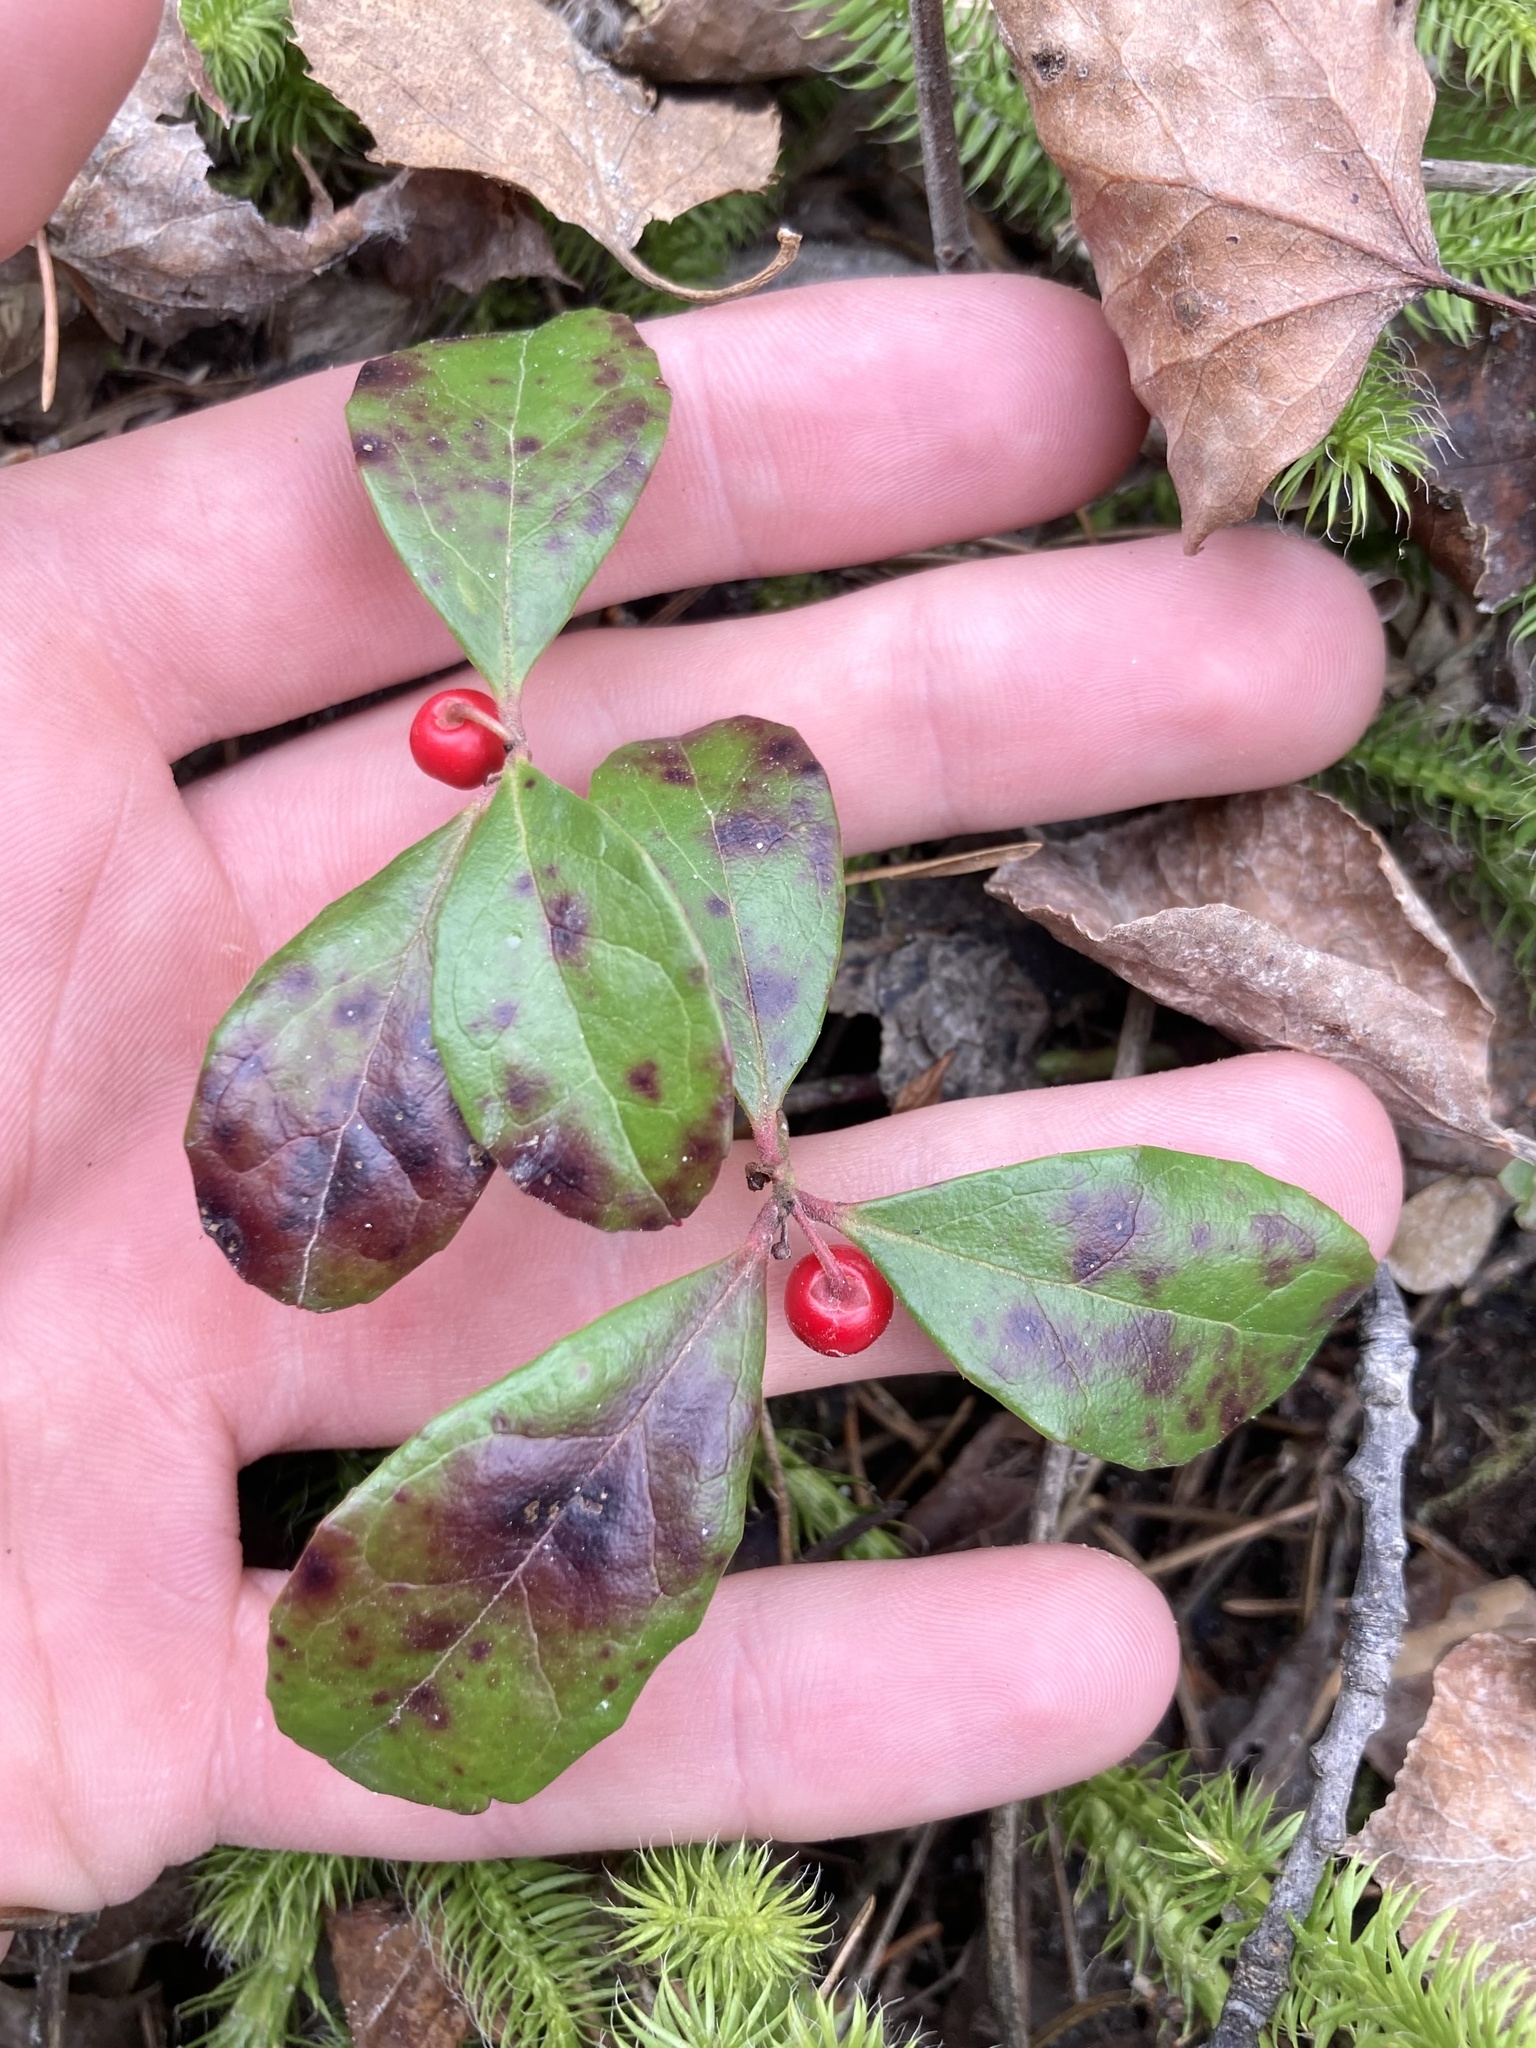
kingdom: Plantae
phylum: Tracheophyta
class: Magnoliopsida
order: Ericales
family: Ericaceae
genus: Gaultheria
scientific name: Gaultheria procumbens
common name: Checkerberry
